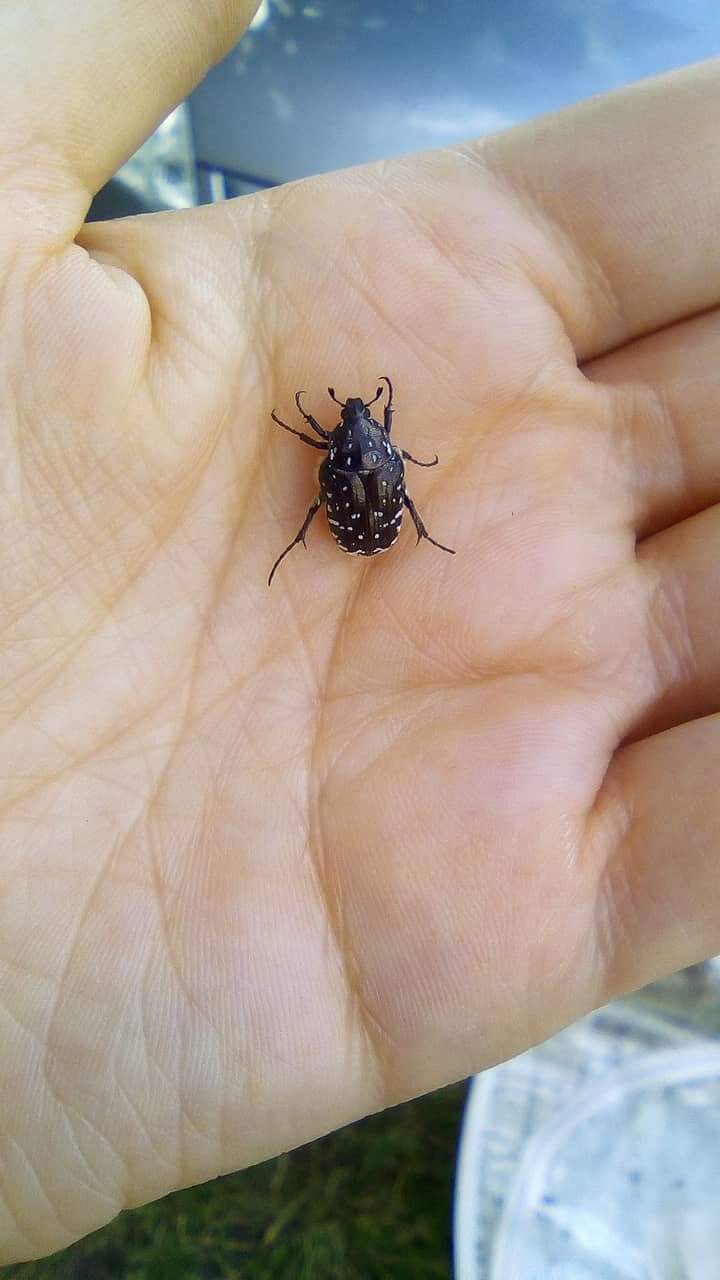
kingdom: Animalia
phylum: Arthropoda
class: Insecta
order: Coleoptera
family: Scarabaeidae
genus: Oxythyrea
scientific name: Oxythyrea funesta
